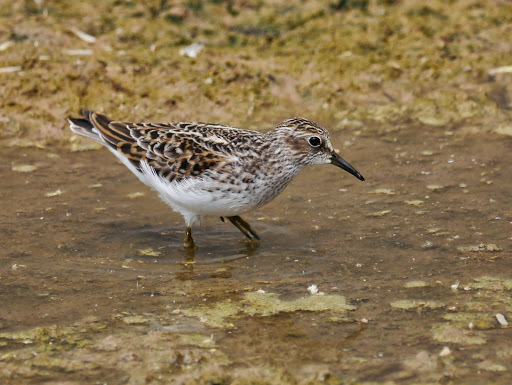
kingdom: Animalia
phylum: Chordata
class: Aves
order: Charadriiformes
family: Scolopacidae
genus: Calidris
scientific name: Calidris minutilla
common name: Least sandpiper
